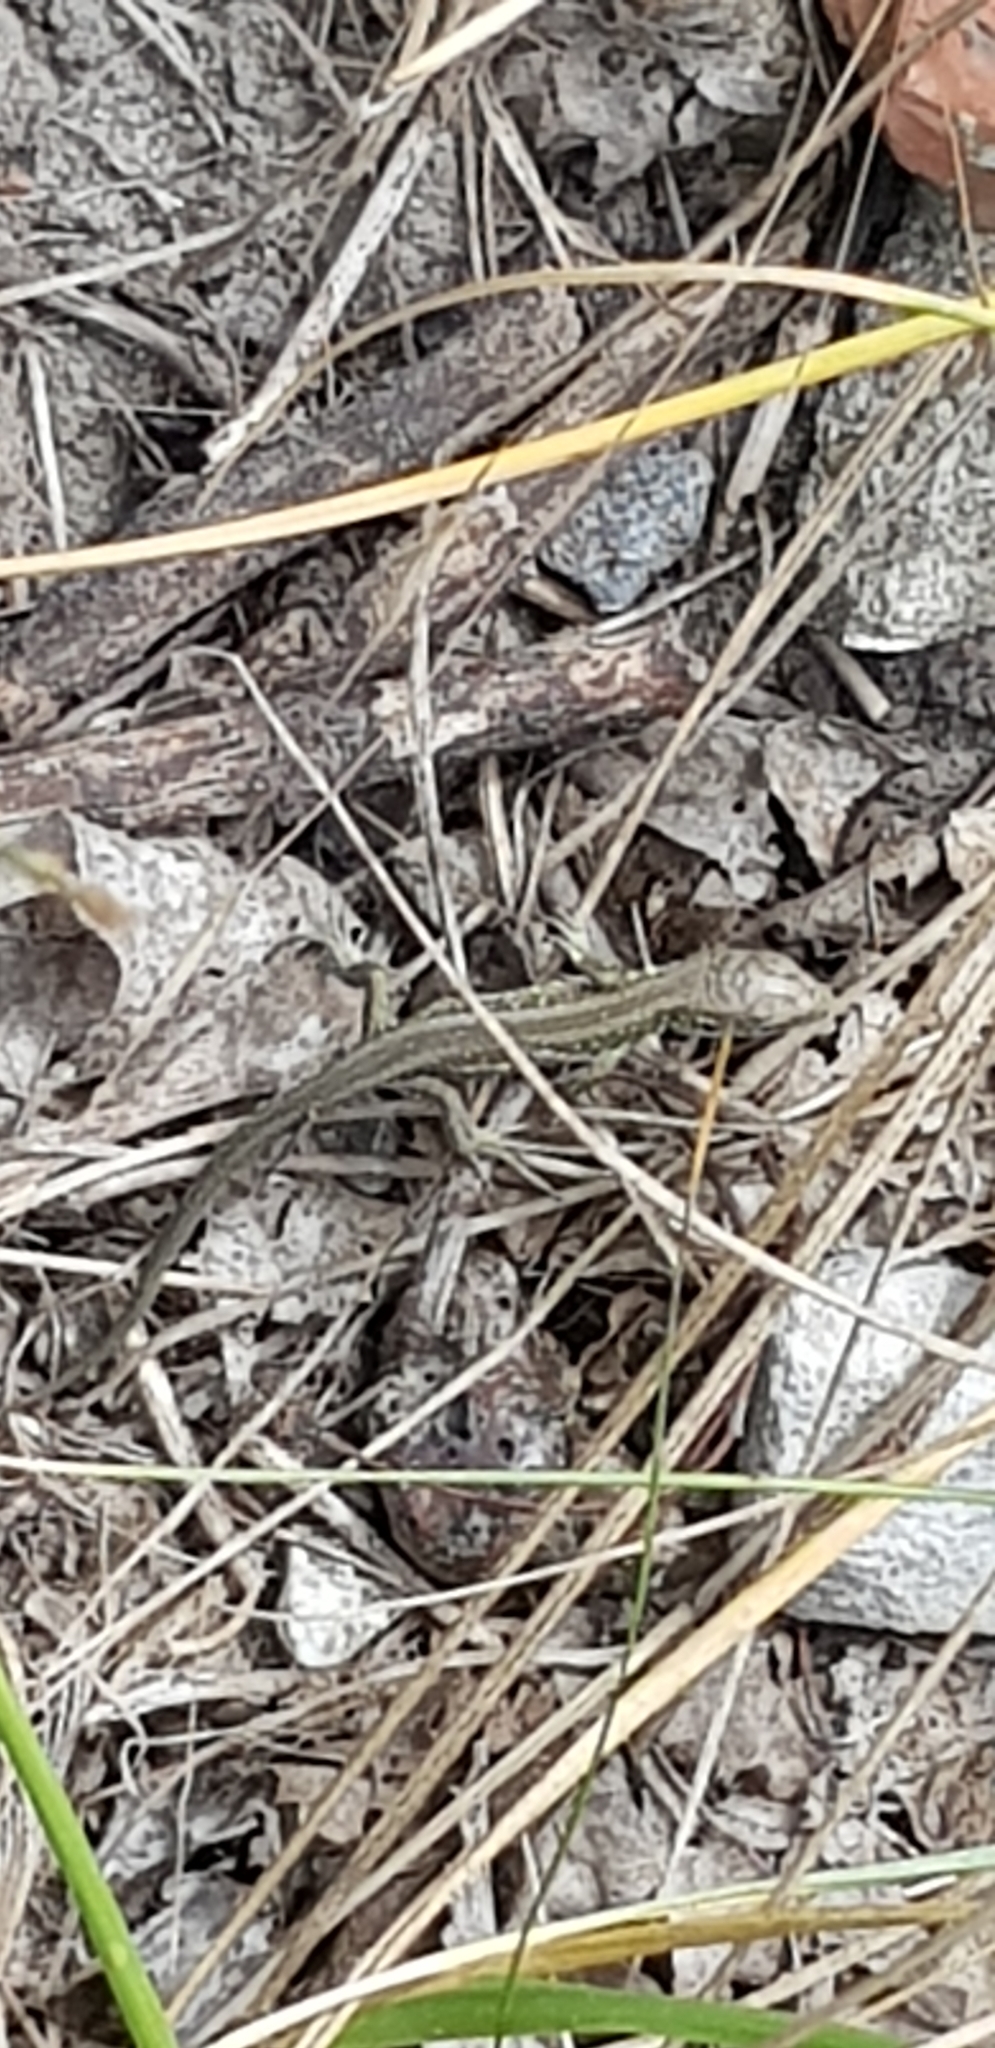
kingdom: Animalia
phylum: Chordata
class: Squamata
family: Lacertidae
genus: Lacerta
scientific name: Lacerta agilis
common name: Sand lizard
